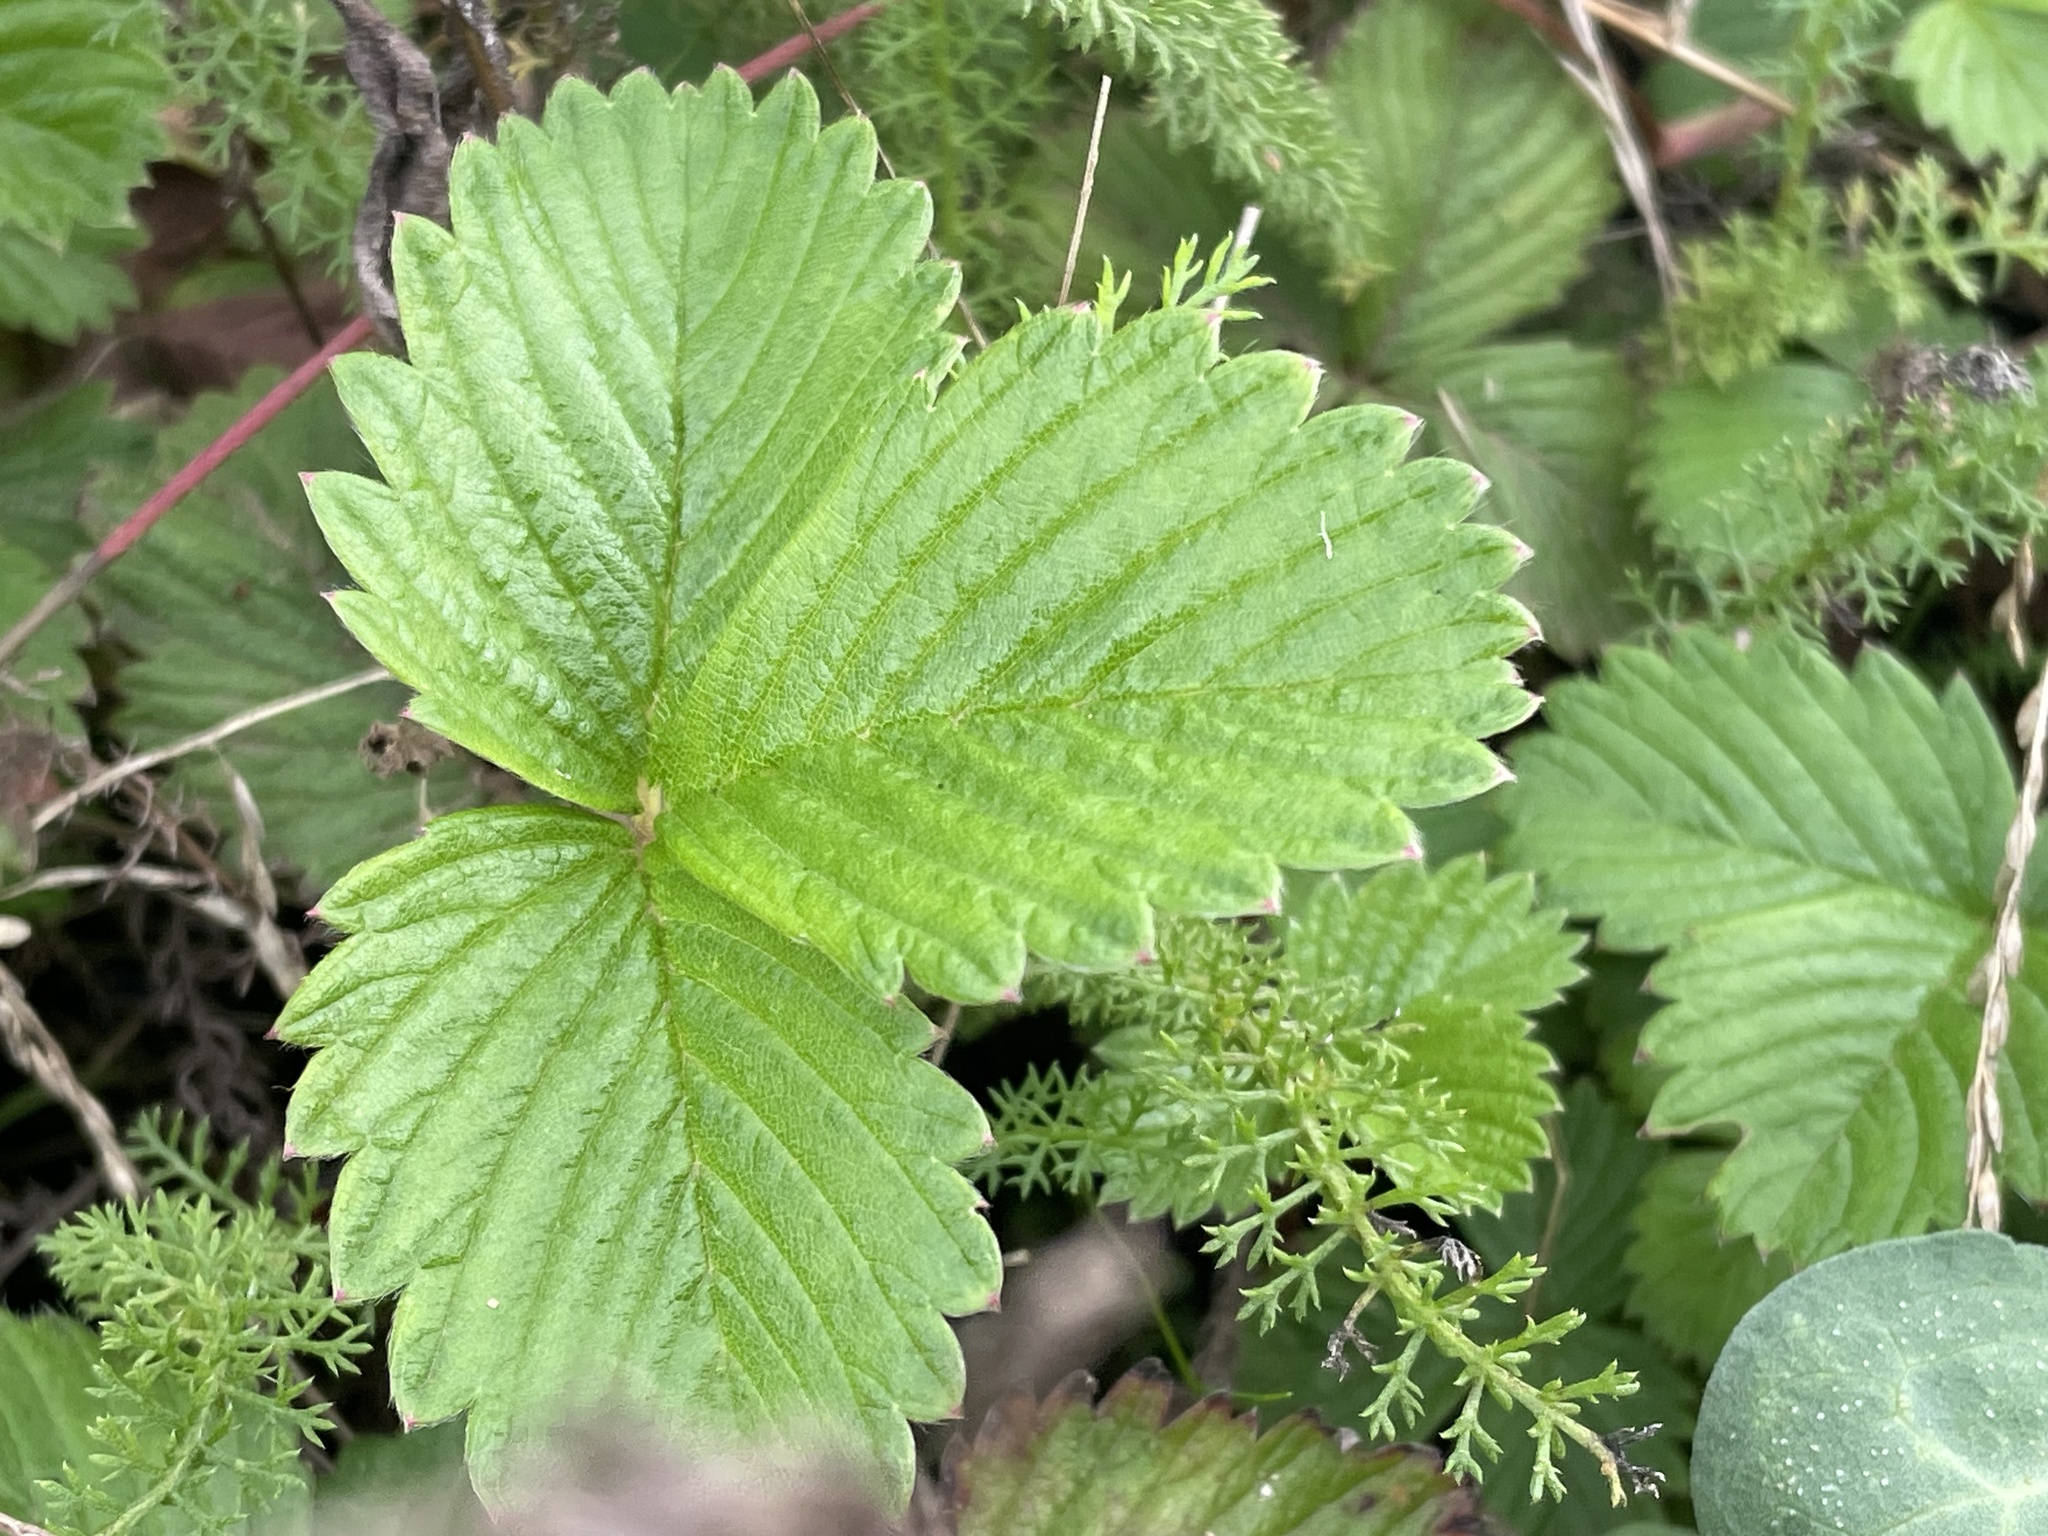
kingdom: Plantae
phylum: Tracheophyta
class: Magnoliopsida
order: Rosales
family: Rosaceae
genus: Fragaria
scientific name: Fragaria vesca
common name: Wild strawberry
